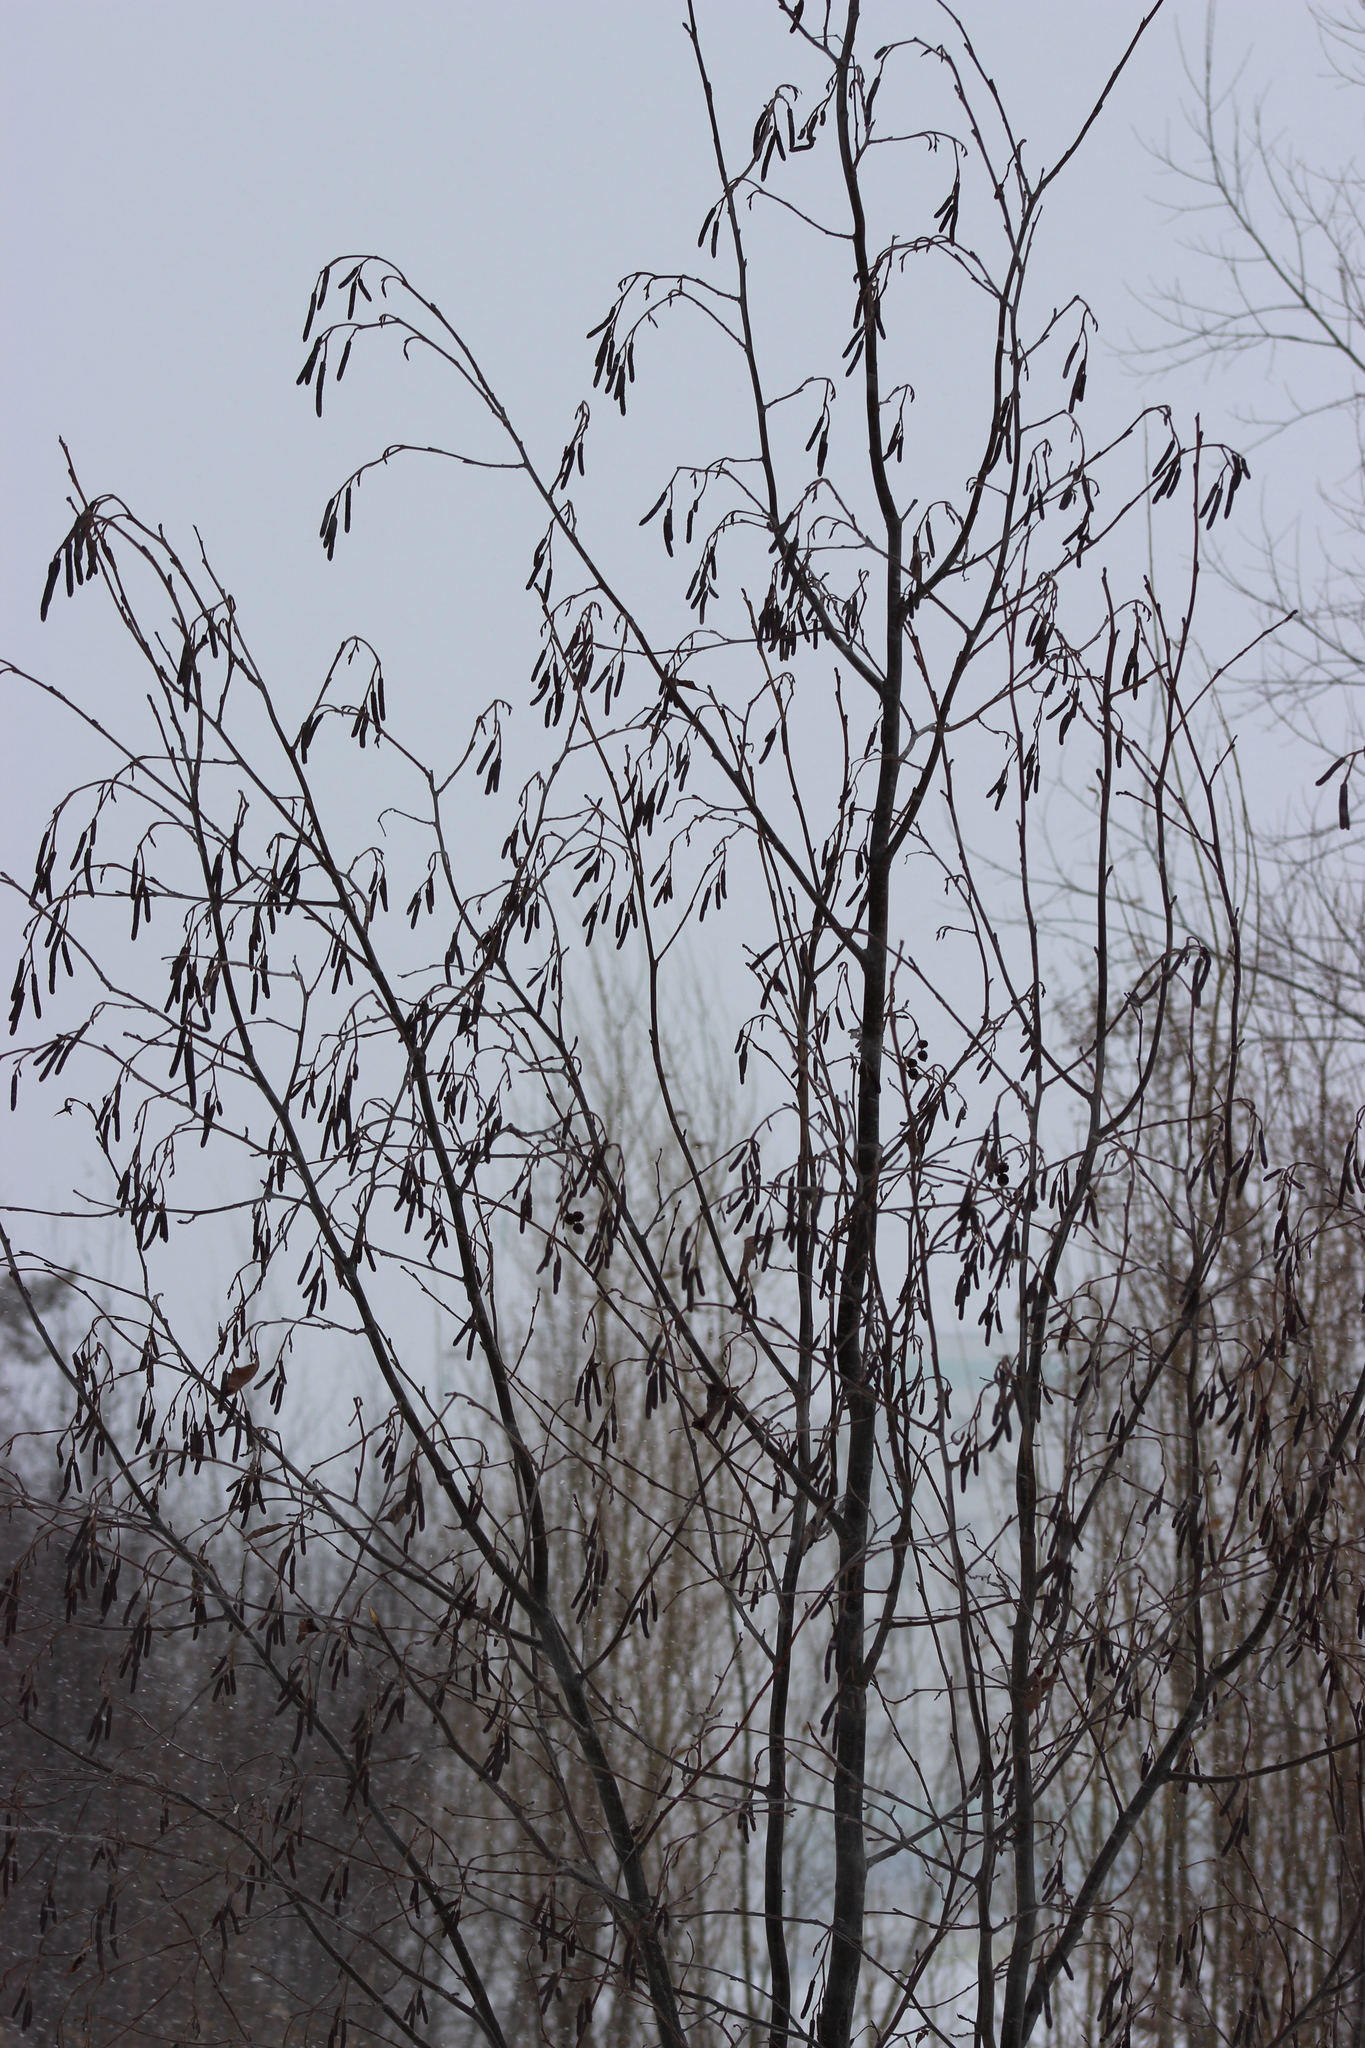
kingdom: Plantae
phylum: Tracheophyta
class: Magnoliopsida
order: Fagales
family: Betulaceae
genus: Alnus
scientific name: Alnus incana
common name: Grey alder
